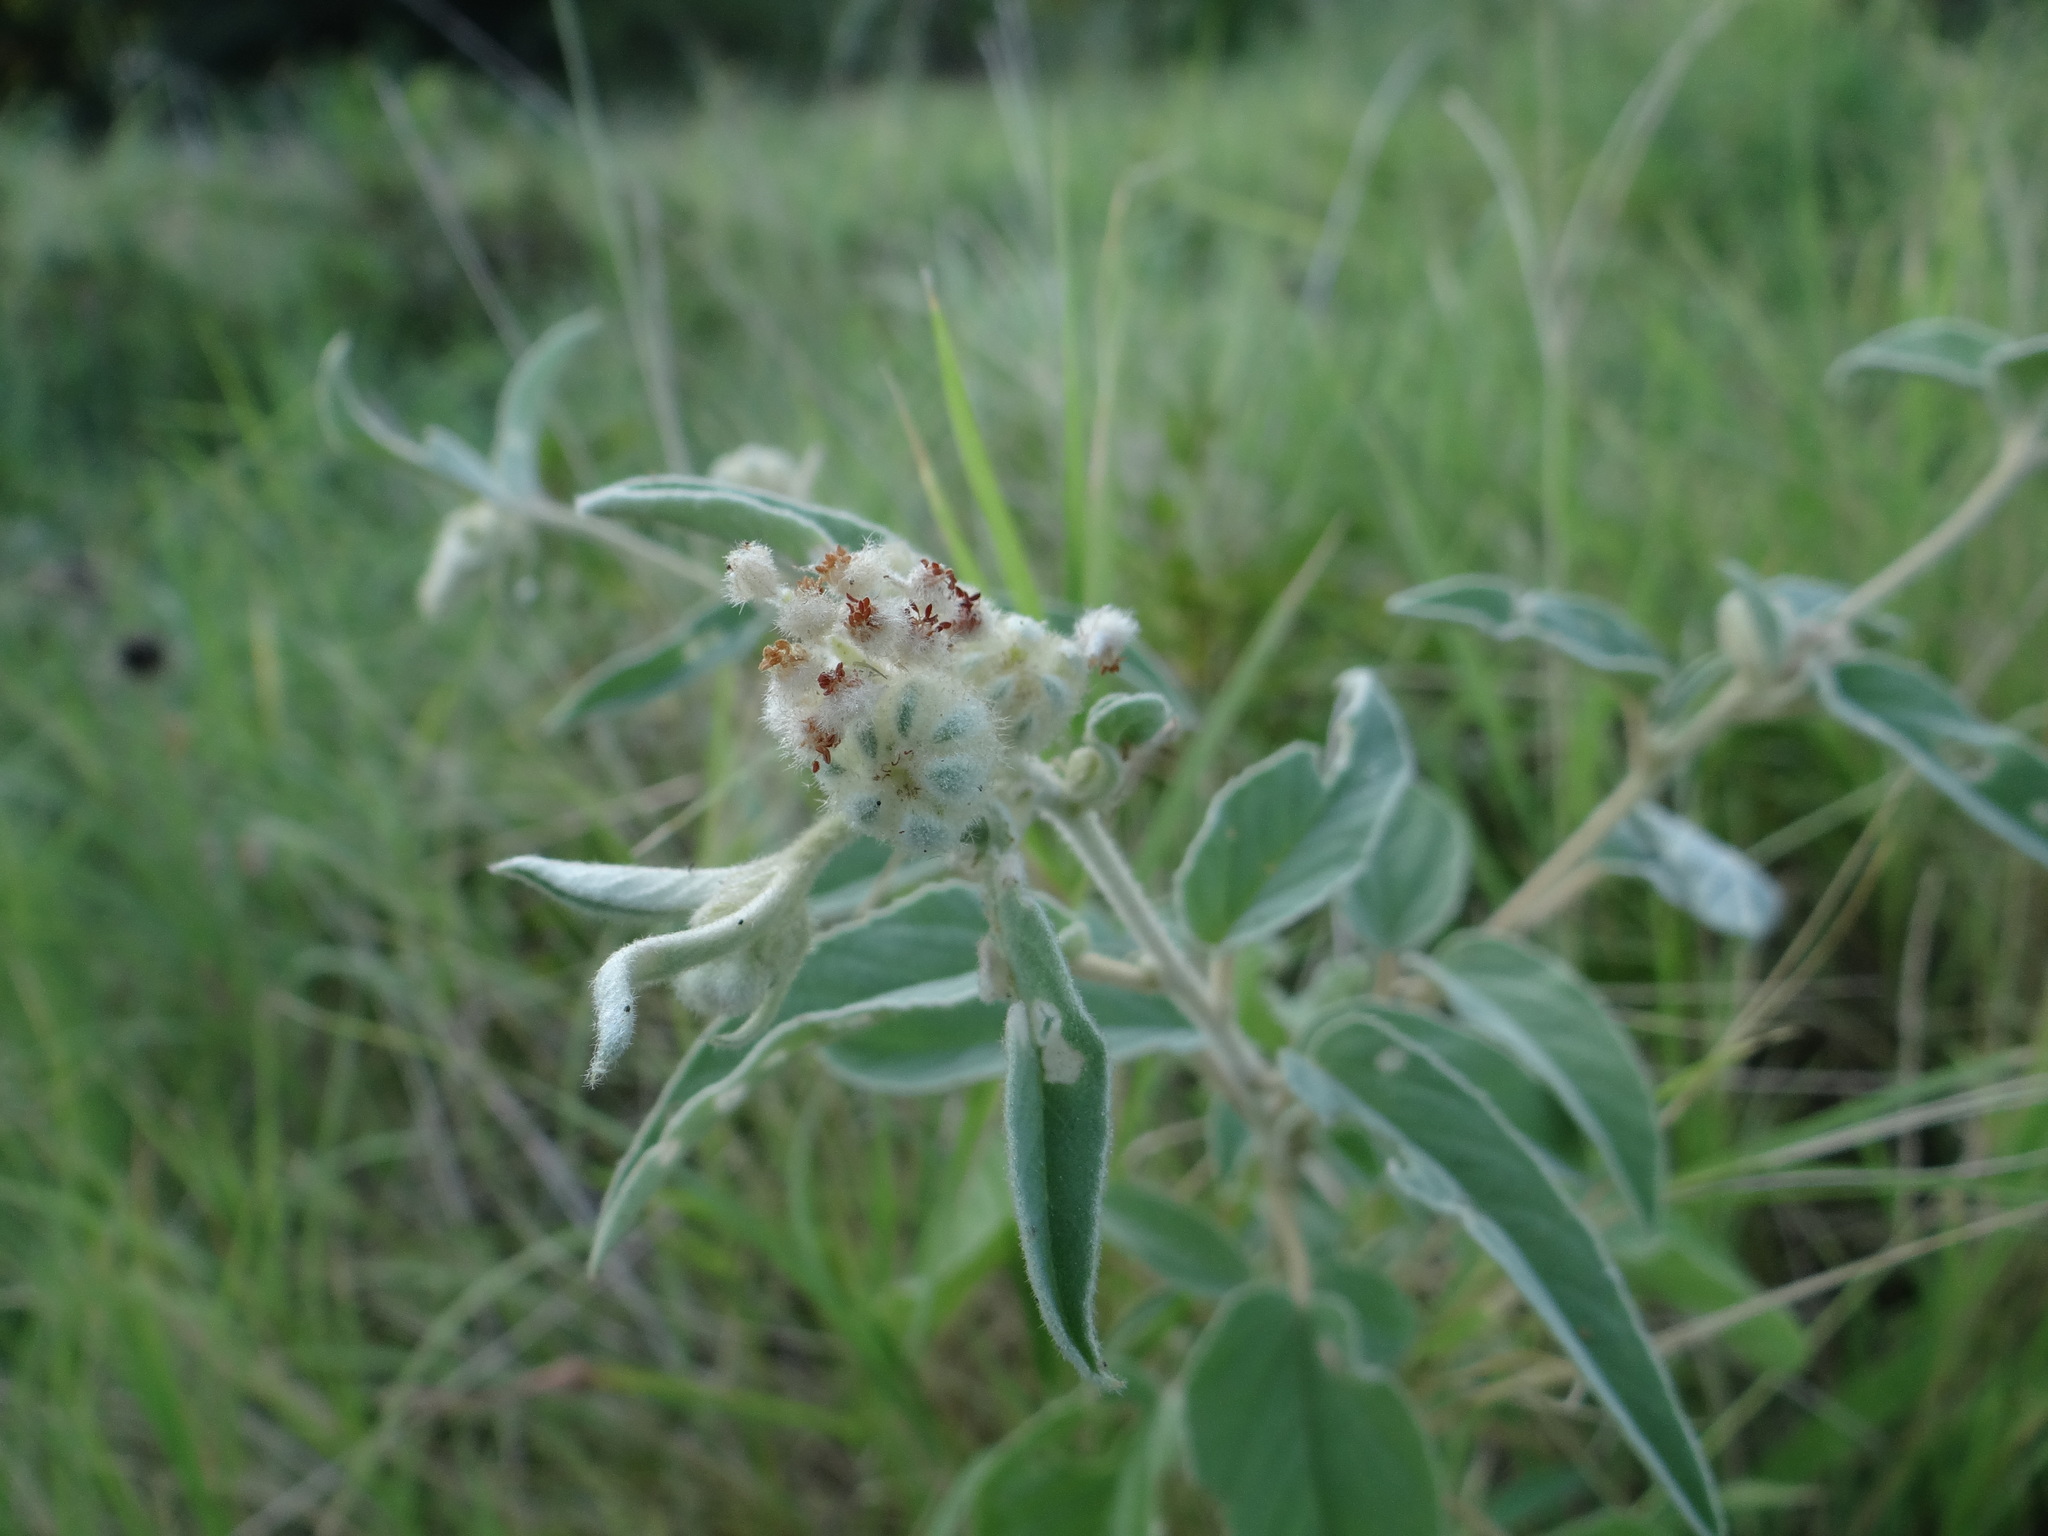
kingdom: Plantae
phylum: Tracheophyta
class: Magnoliopsida
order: Malpighiales
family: Euphorbiaceae
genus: Croton
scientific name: Croton lindheimeri
